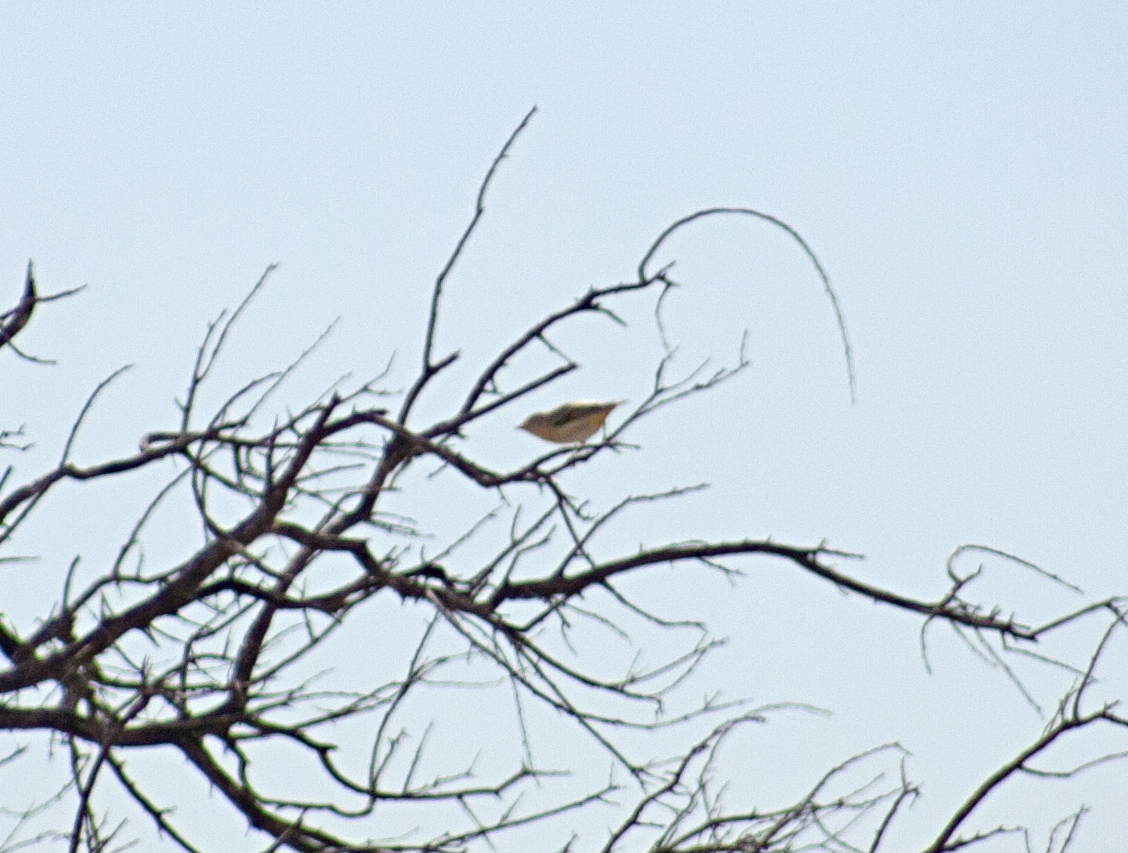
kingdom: Animalia
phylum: Chordata
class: Aves
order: Passeriformes
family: Pardalotidae
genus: Pardalotus
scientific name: Pardalotus rubricatus
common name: Red-browed pardalote
